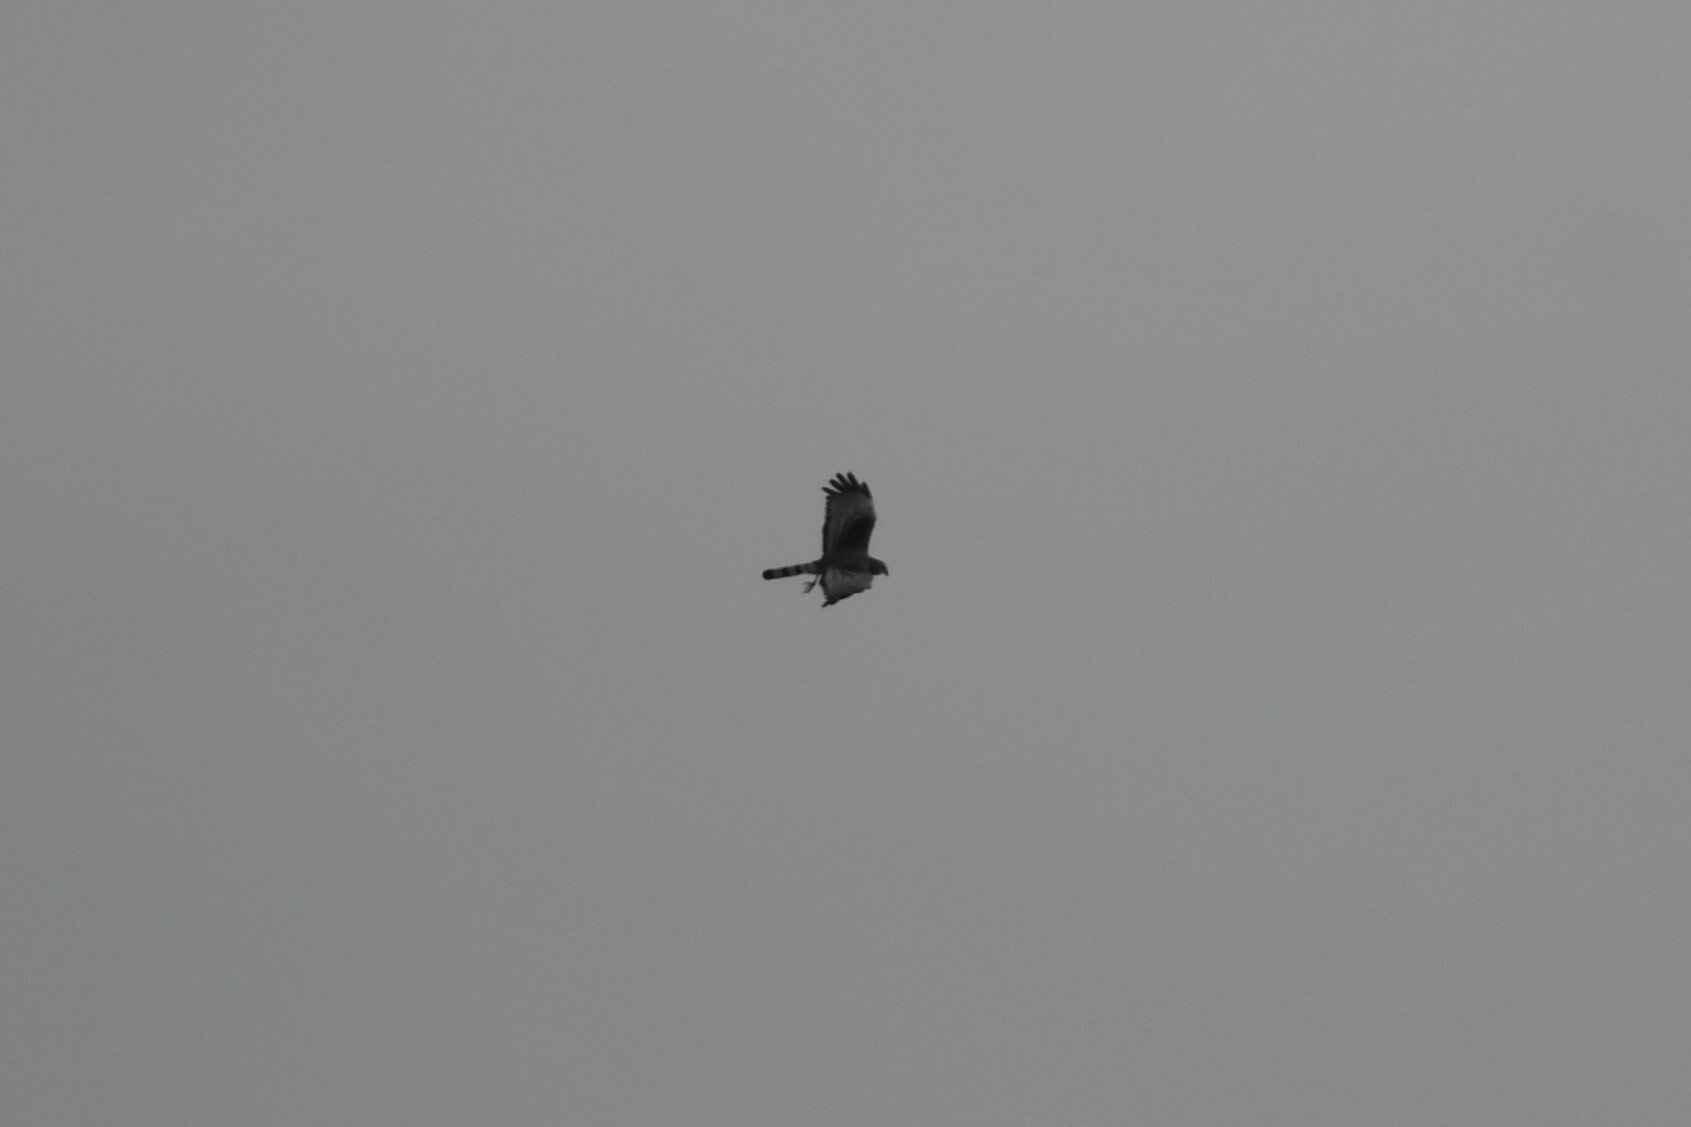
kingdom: Animalia
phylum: Chordata
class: Aves
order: Accipitriformes
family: Accipitridae
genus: Circus
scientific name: Circus buffoni
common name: Long-winged harrier
